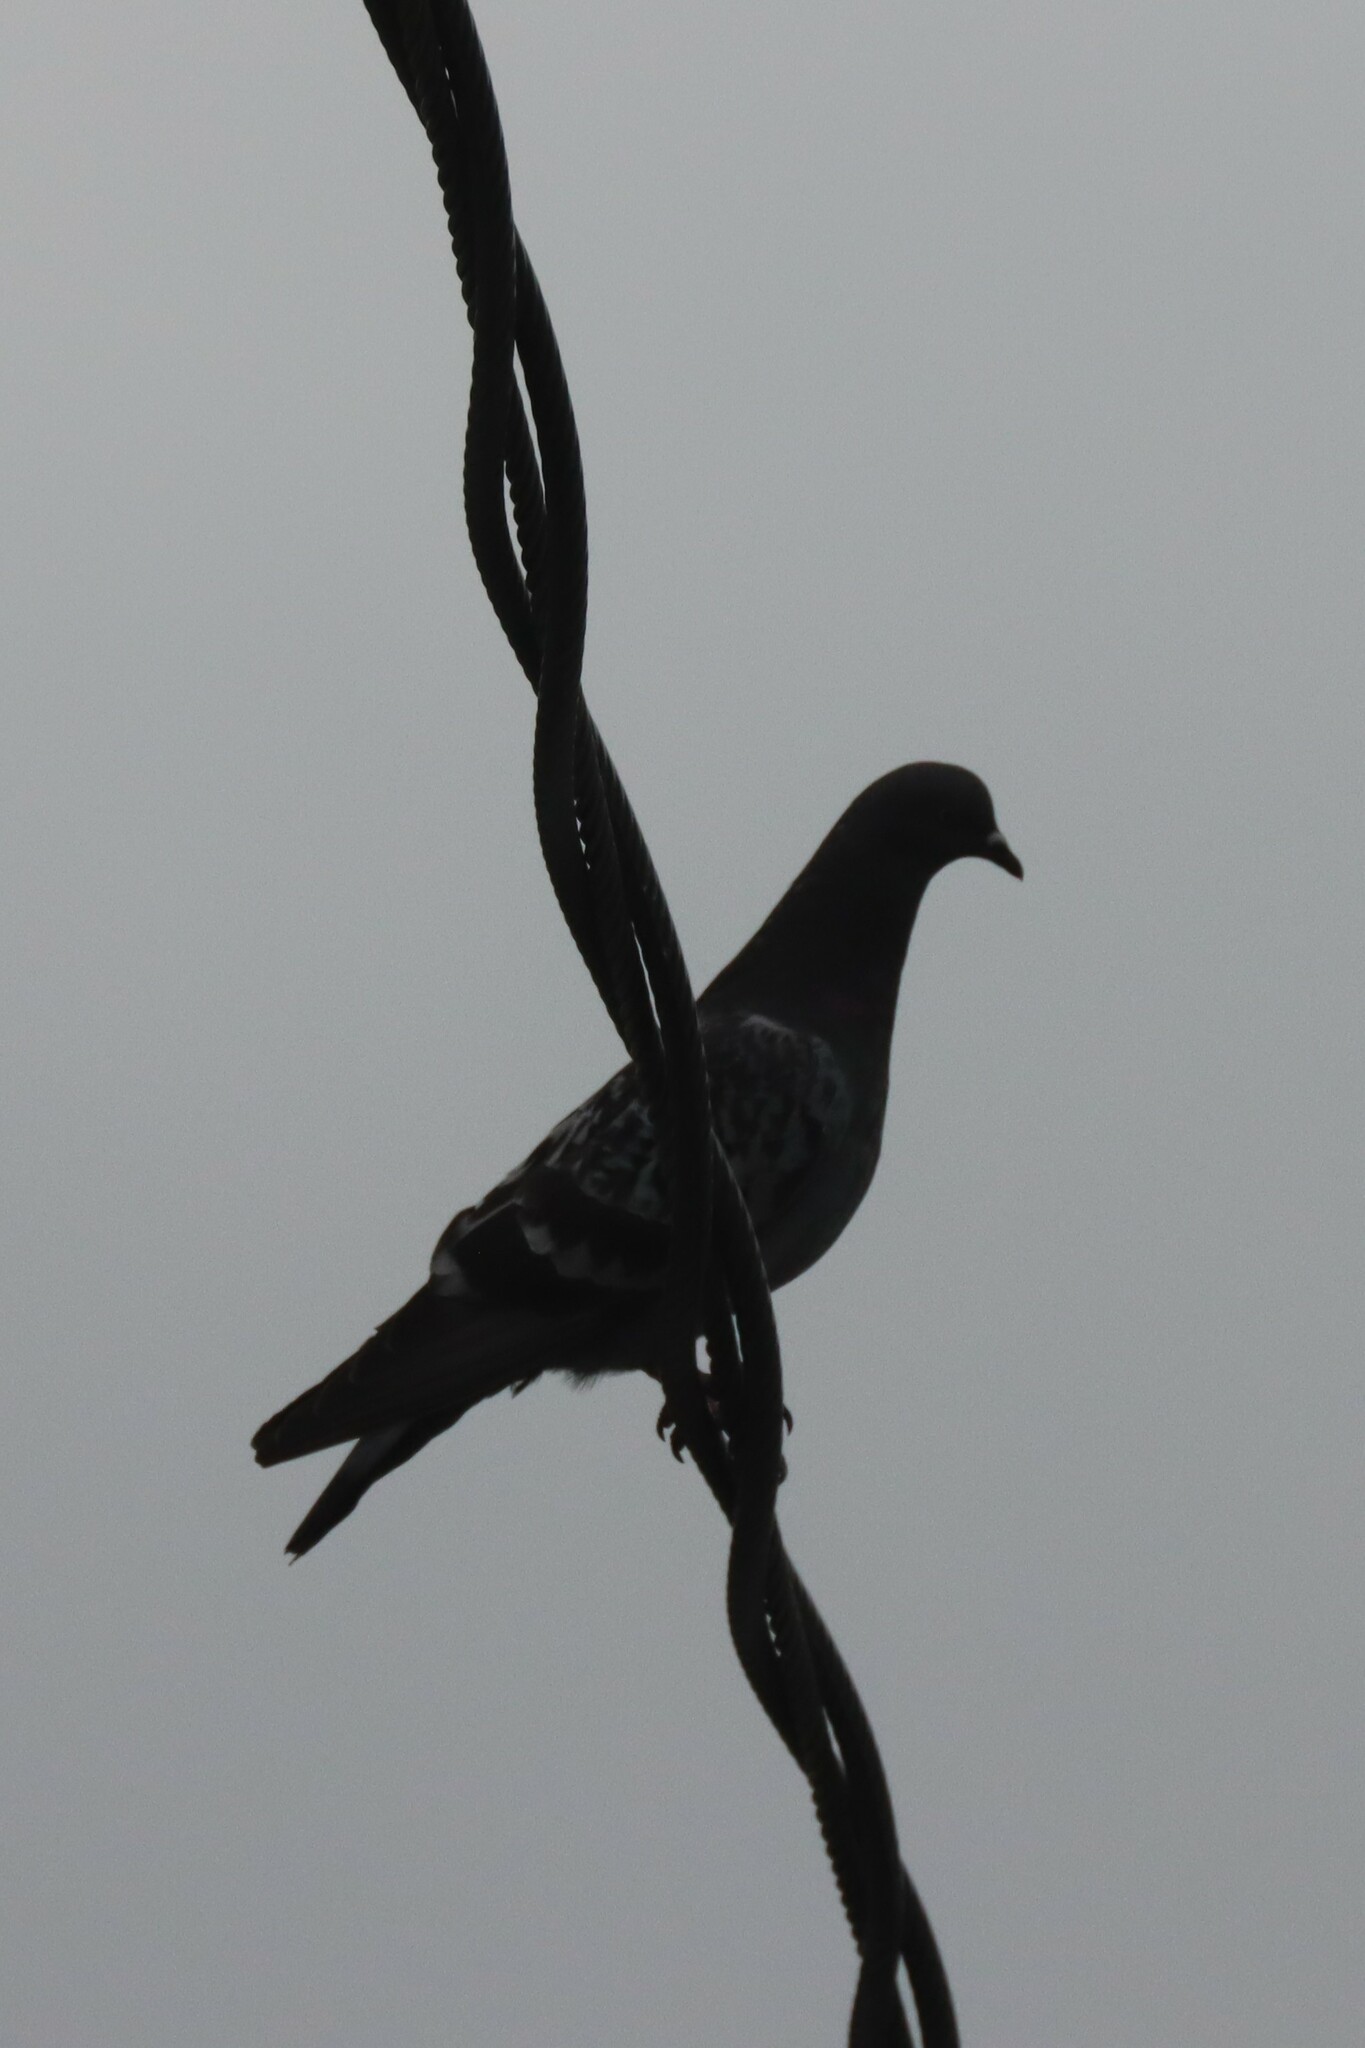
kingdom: Animalia
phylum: Chordata
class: Aves
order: Columbiformes
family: Columbidae
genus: Columba
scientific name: Columba livia
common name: Rock pigeon
